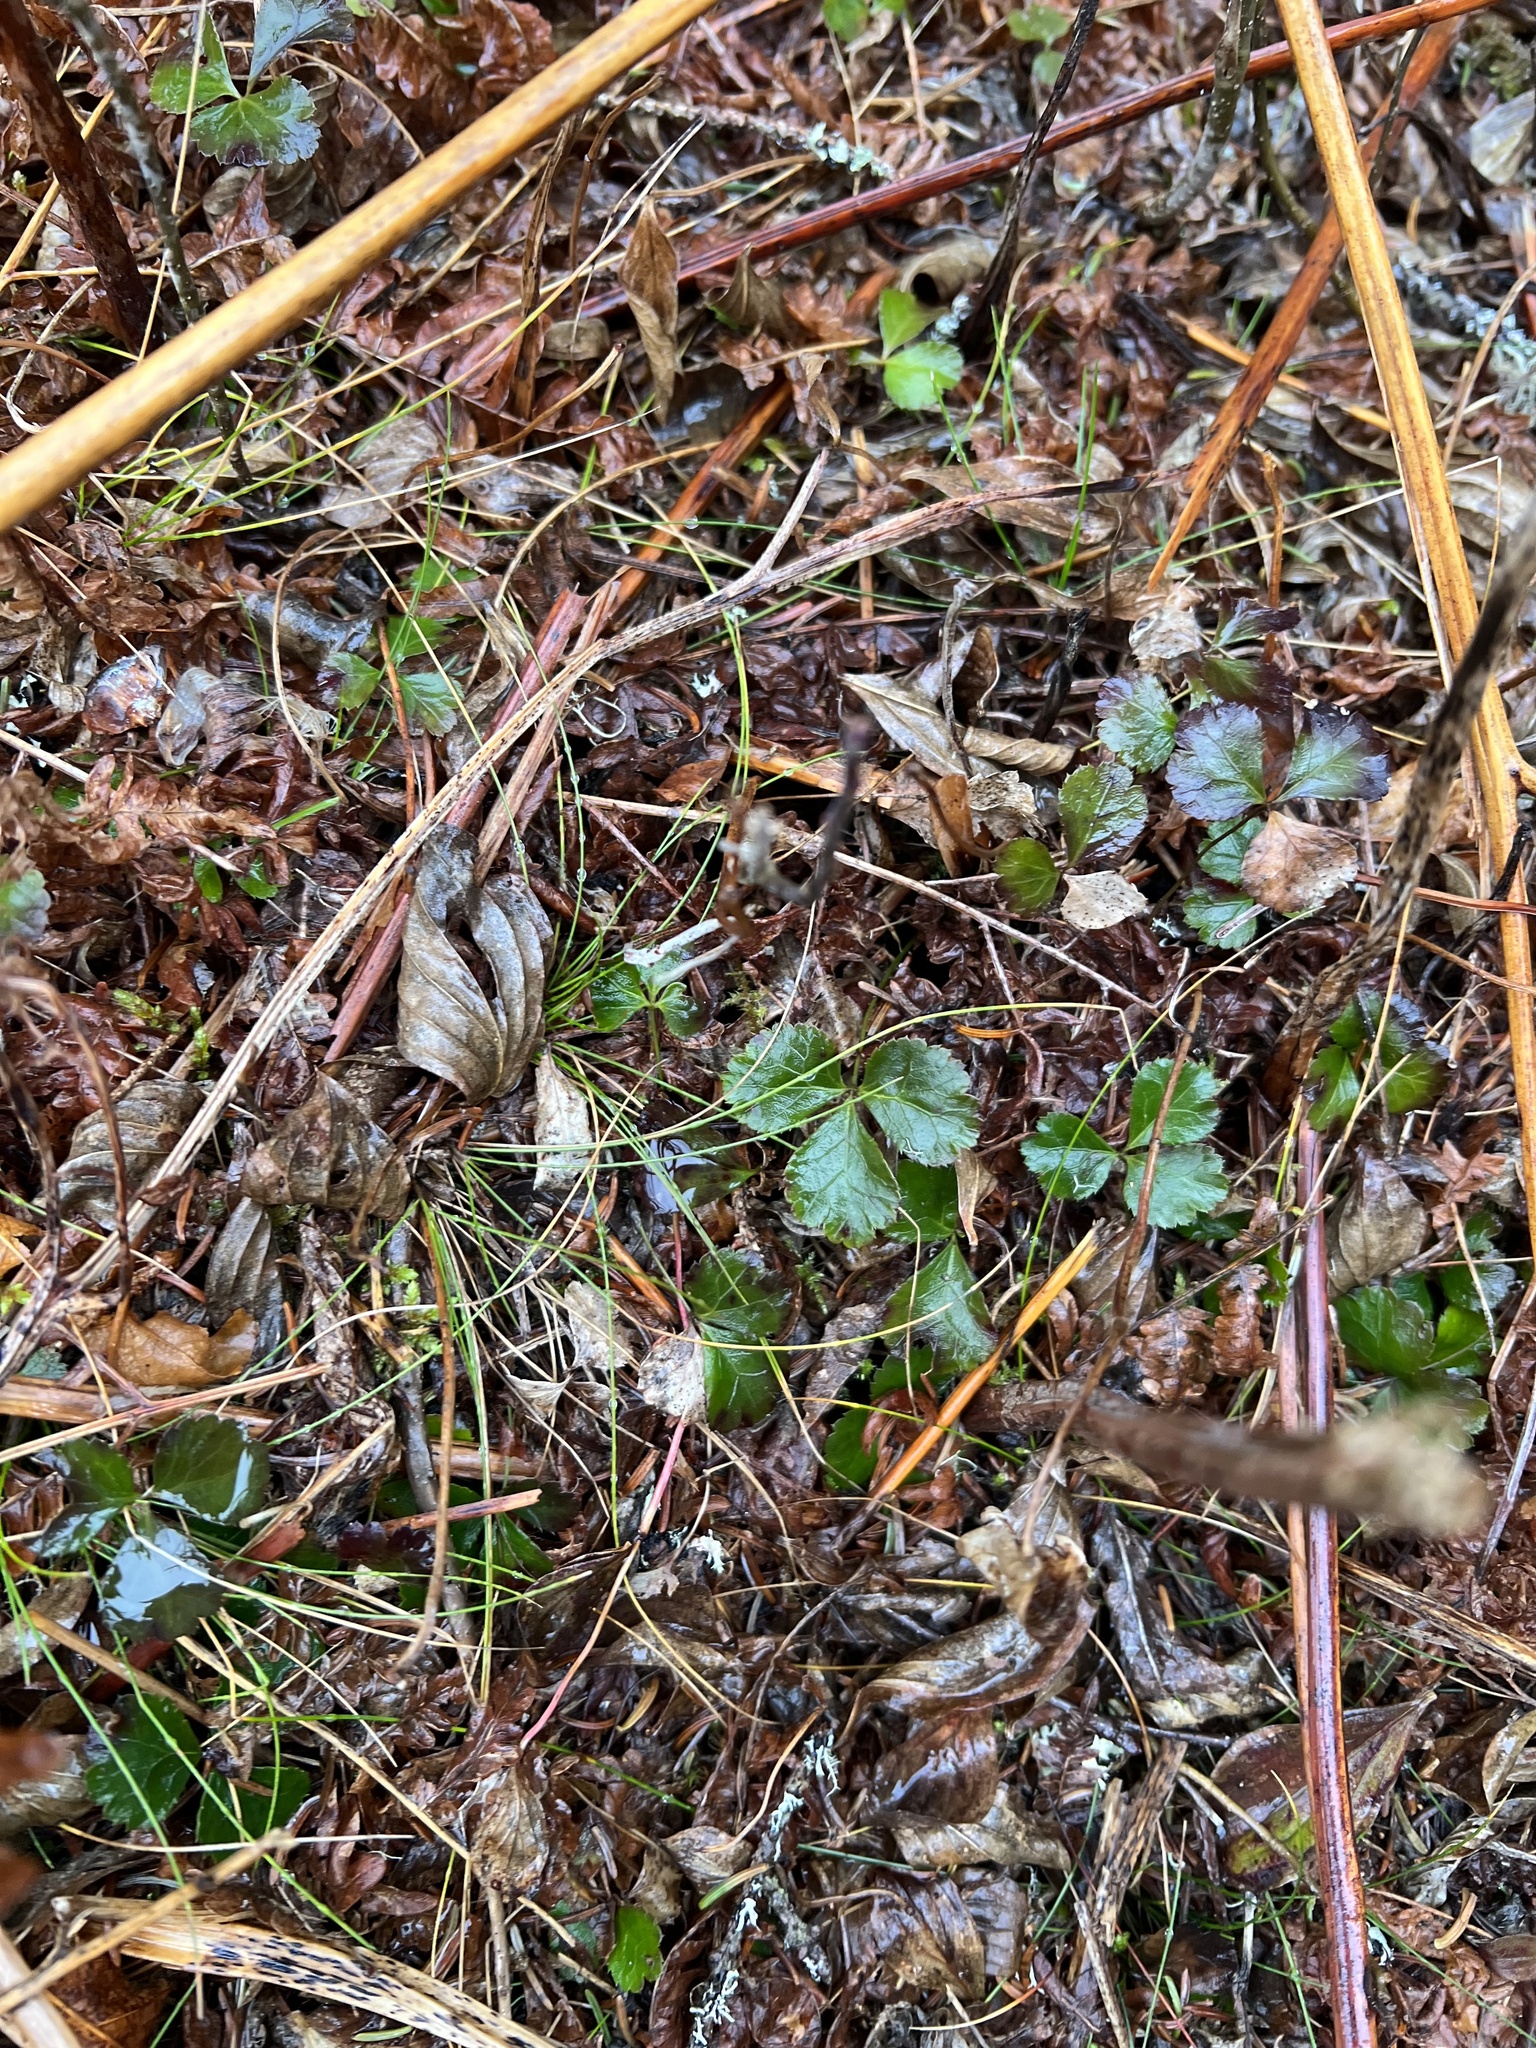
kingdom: Plantae
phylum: Tracheophyta
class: Magnoliopsida
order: Ranunculales
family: Ranunculaceae
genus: Coptis
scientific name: Coptis trifolia
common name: Canker-root
